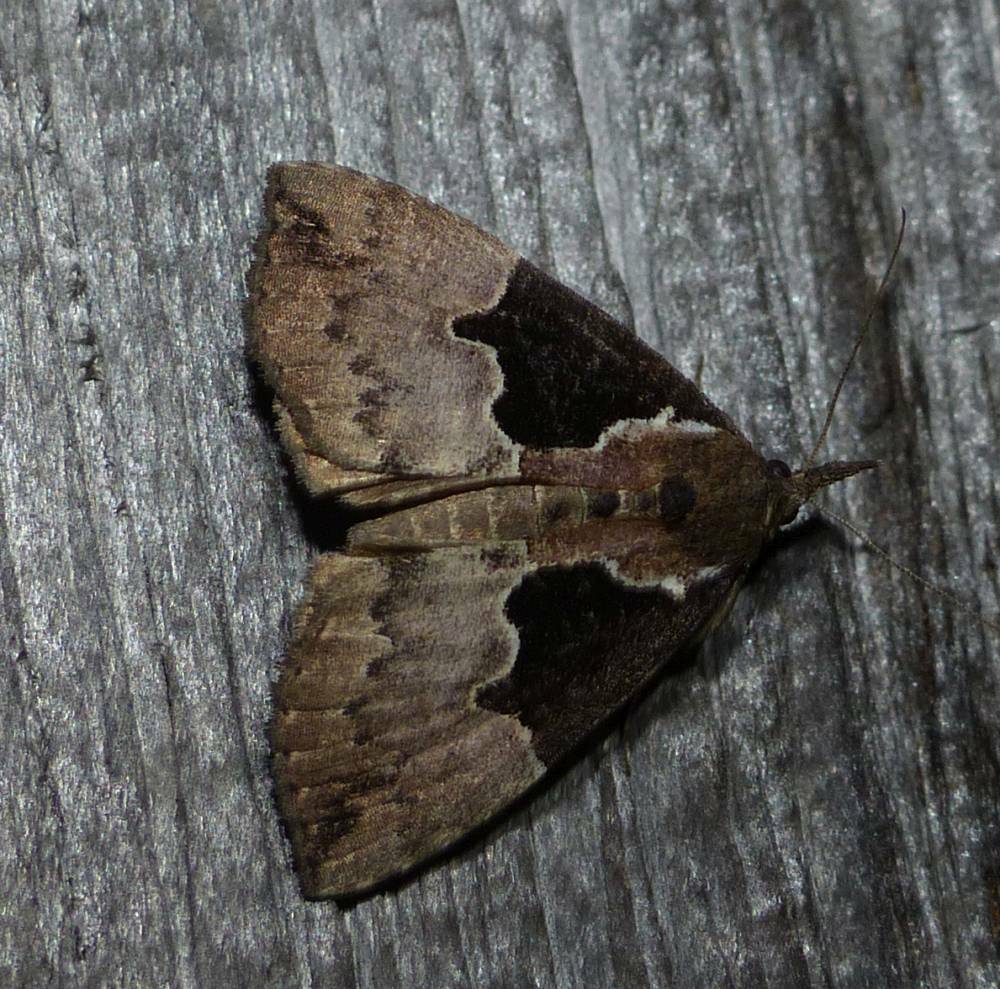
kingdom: Animalia
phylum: Arthropoda
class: Insecta
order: Lepidoptera
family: Erebidae
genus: Hypena
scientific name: Hypena bijugalis
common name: Dimorphic bomolocha moth
